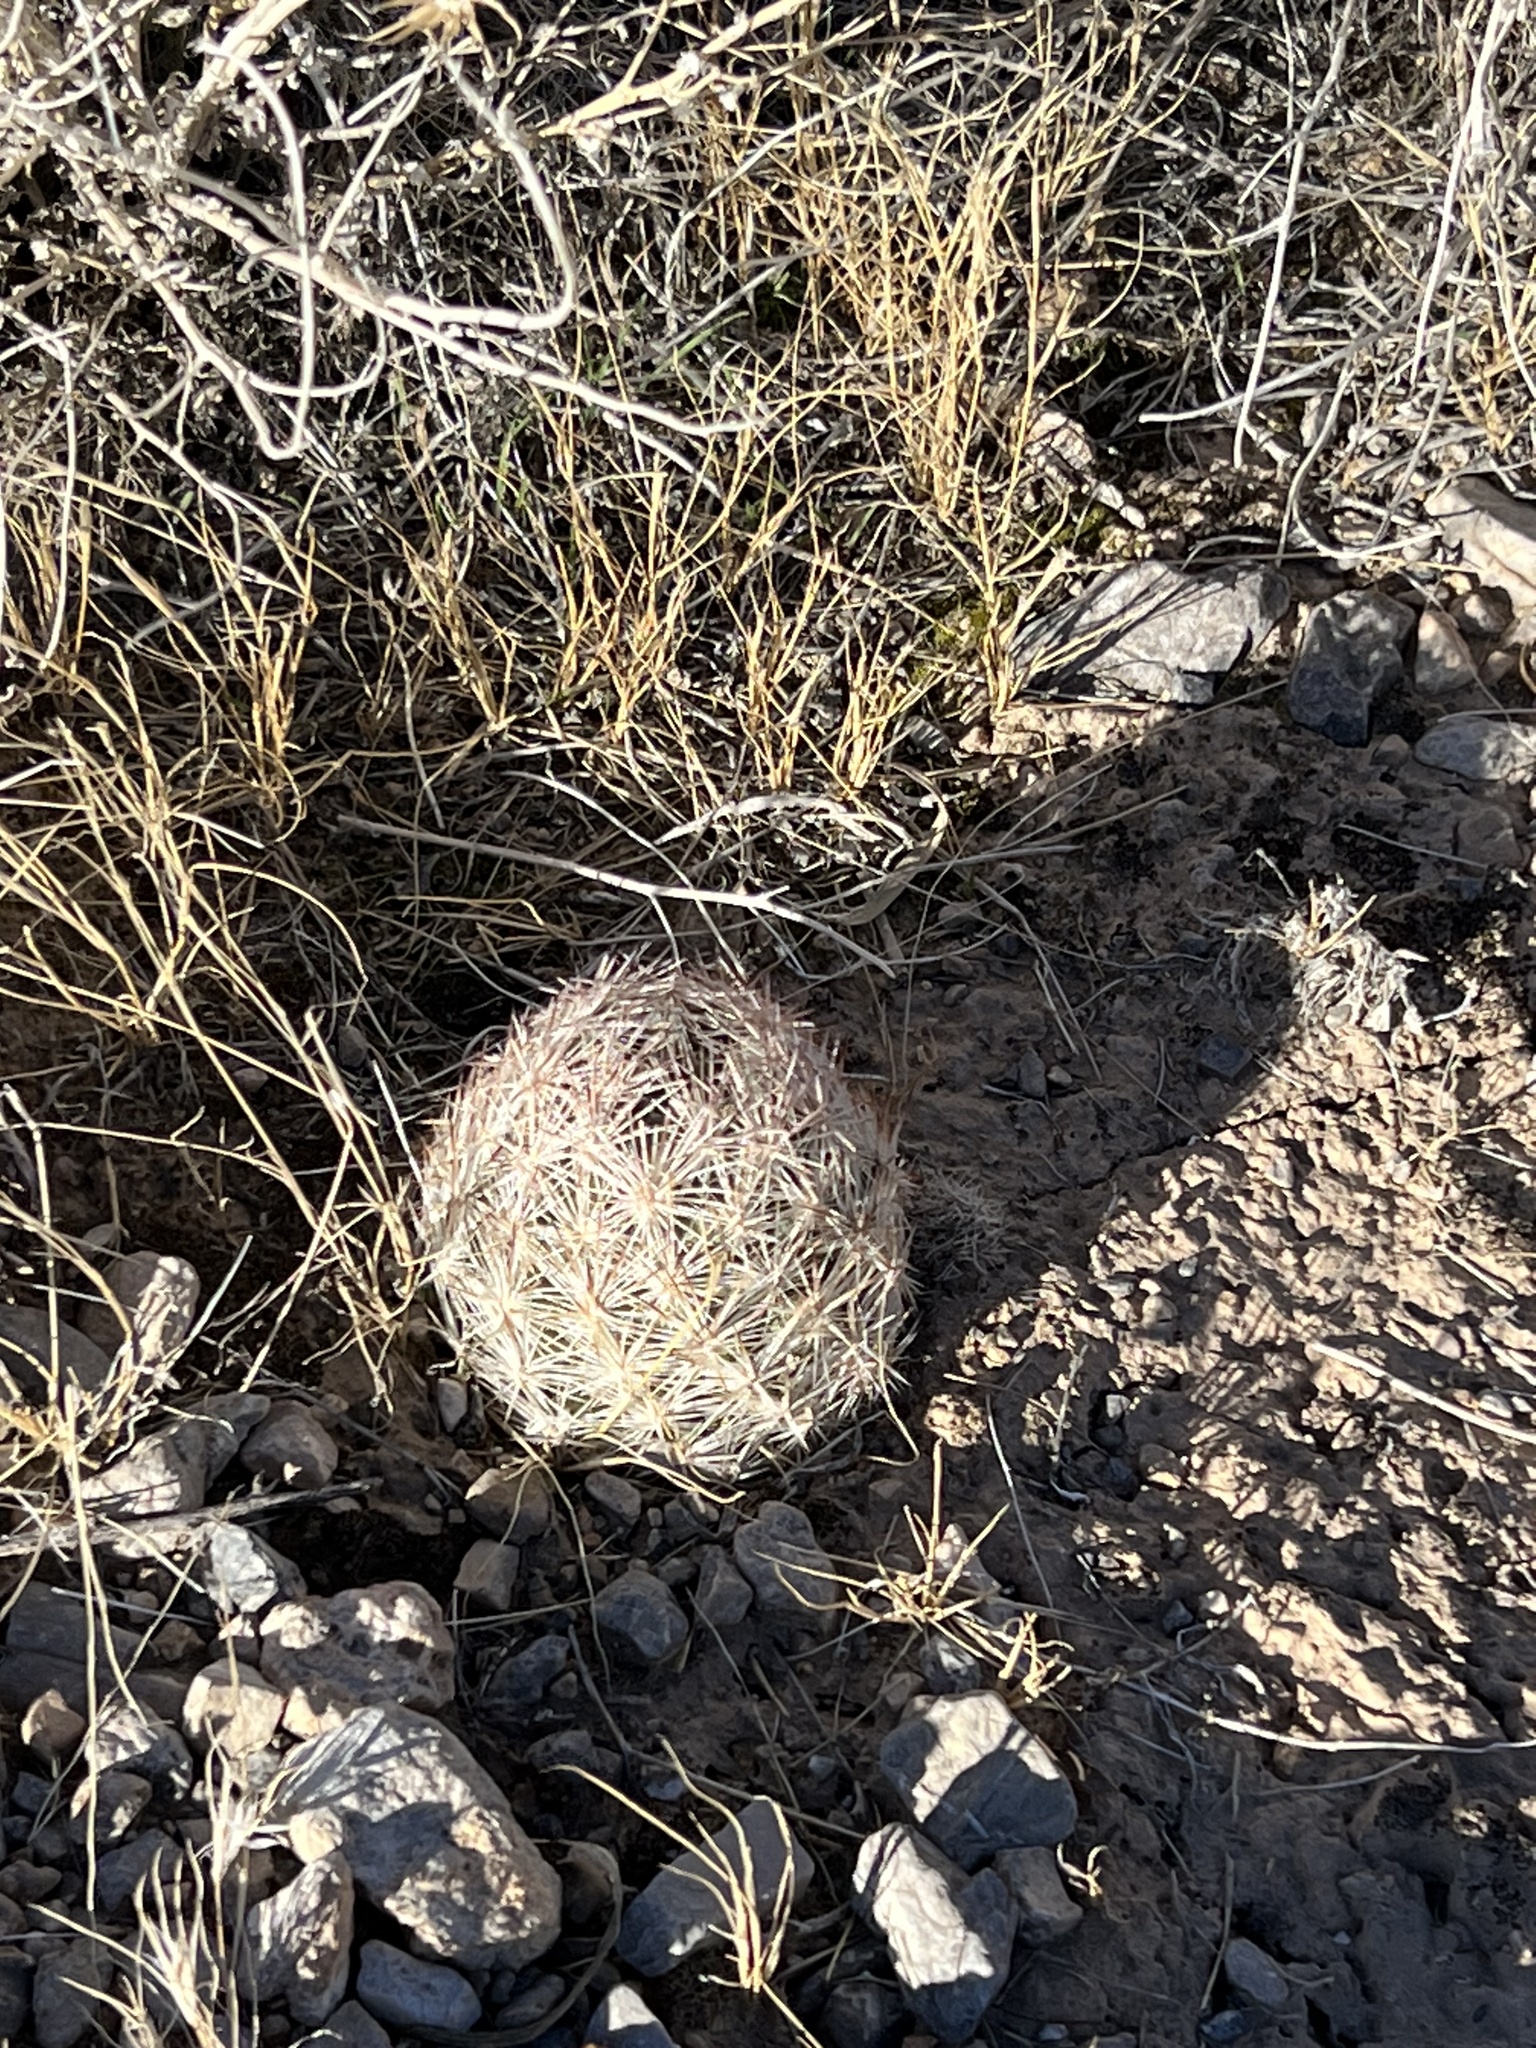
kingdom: Plantae
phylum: Tracheophyta
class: Magnoliopsida
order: Caryophyllales
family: Cactaceae
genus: Pelecyphora
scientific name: Pelecyphora dasyacantha
